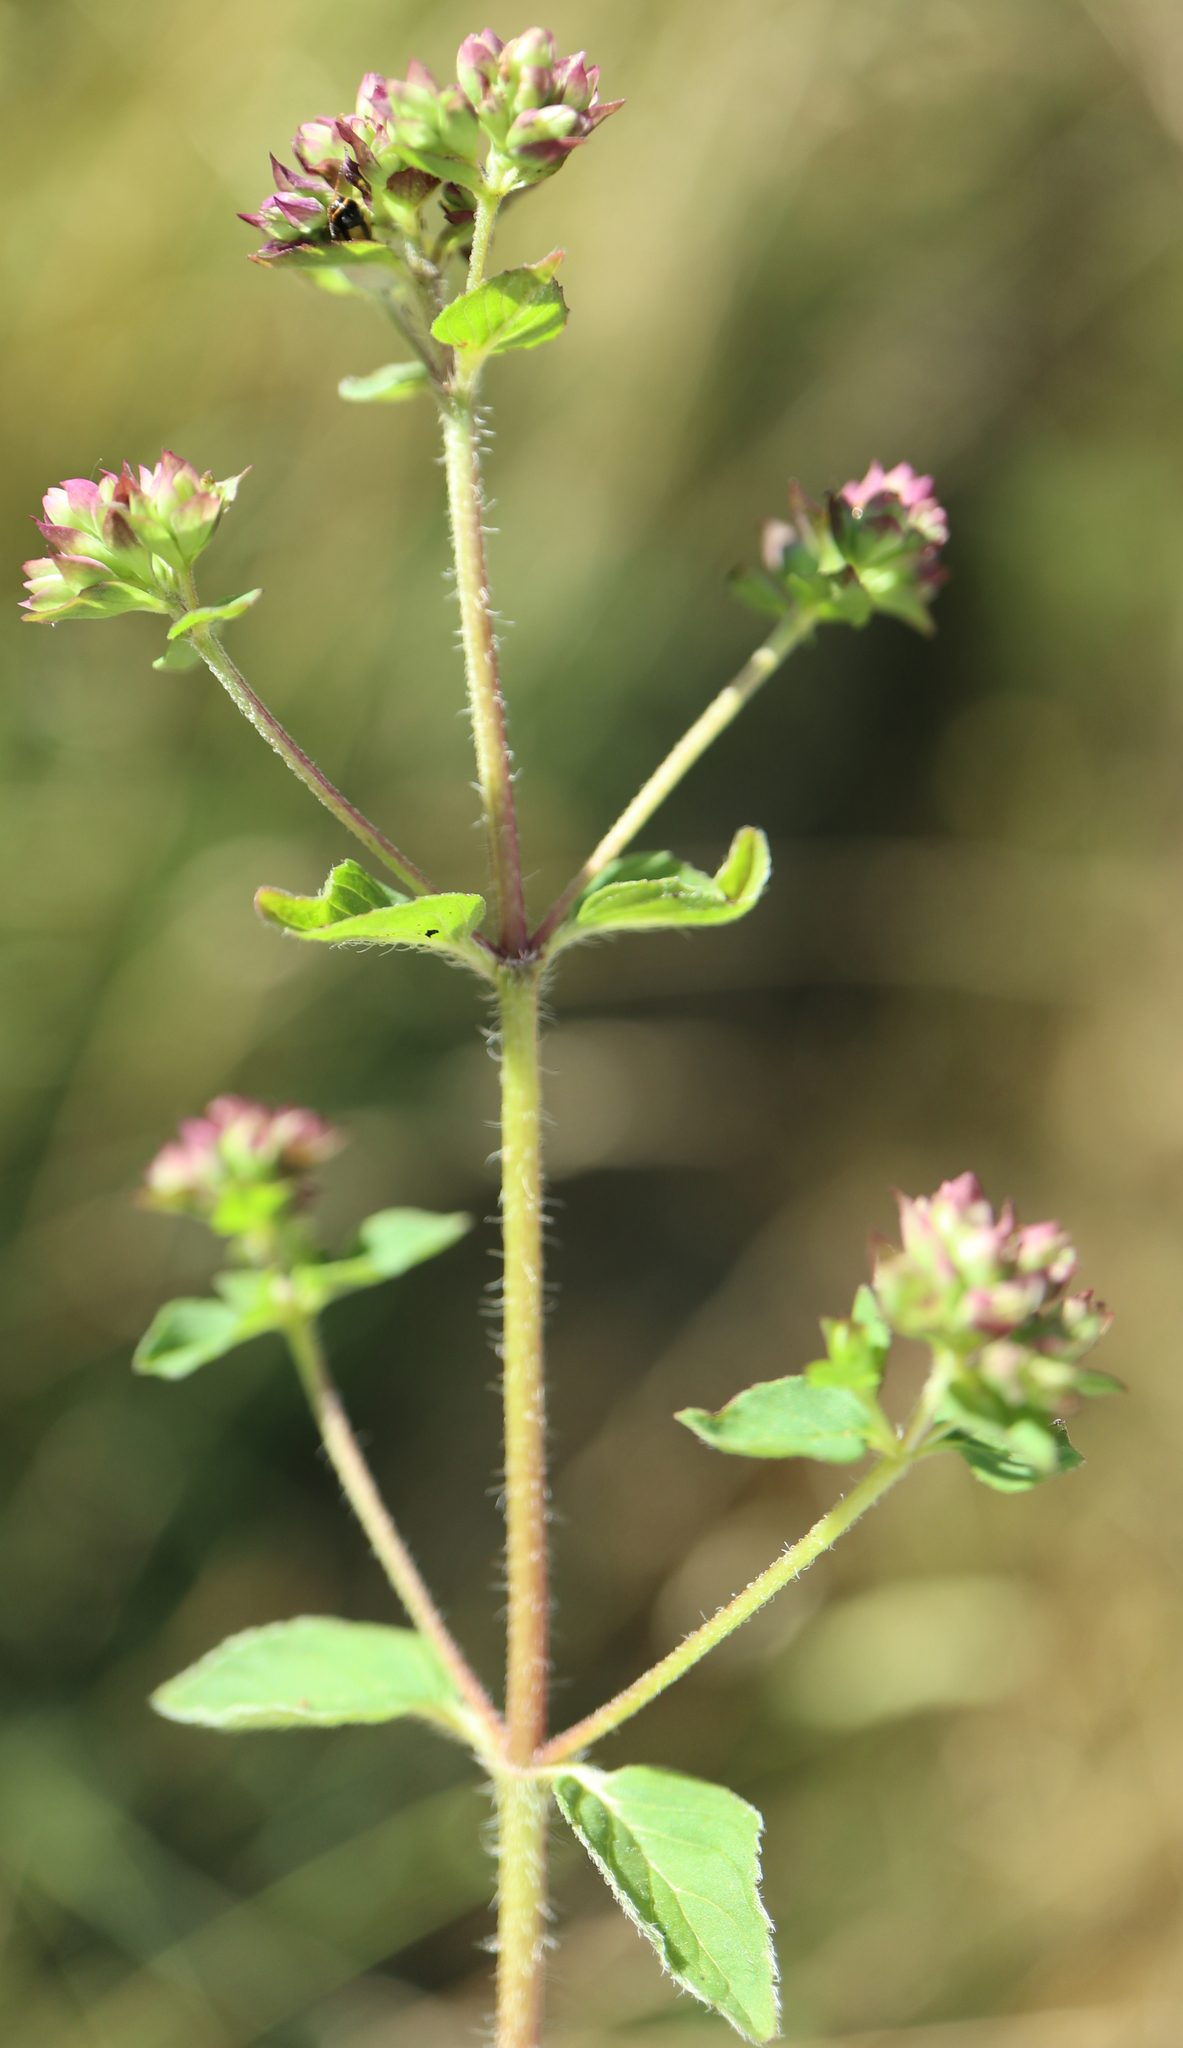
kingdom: Plantae
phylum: Tracheophyta
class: Magnoliopsida
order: Lamiales
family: Lamiaceae
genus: Origanum
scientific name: Origanum vulgare
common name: Wild marjoram
